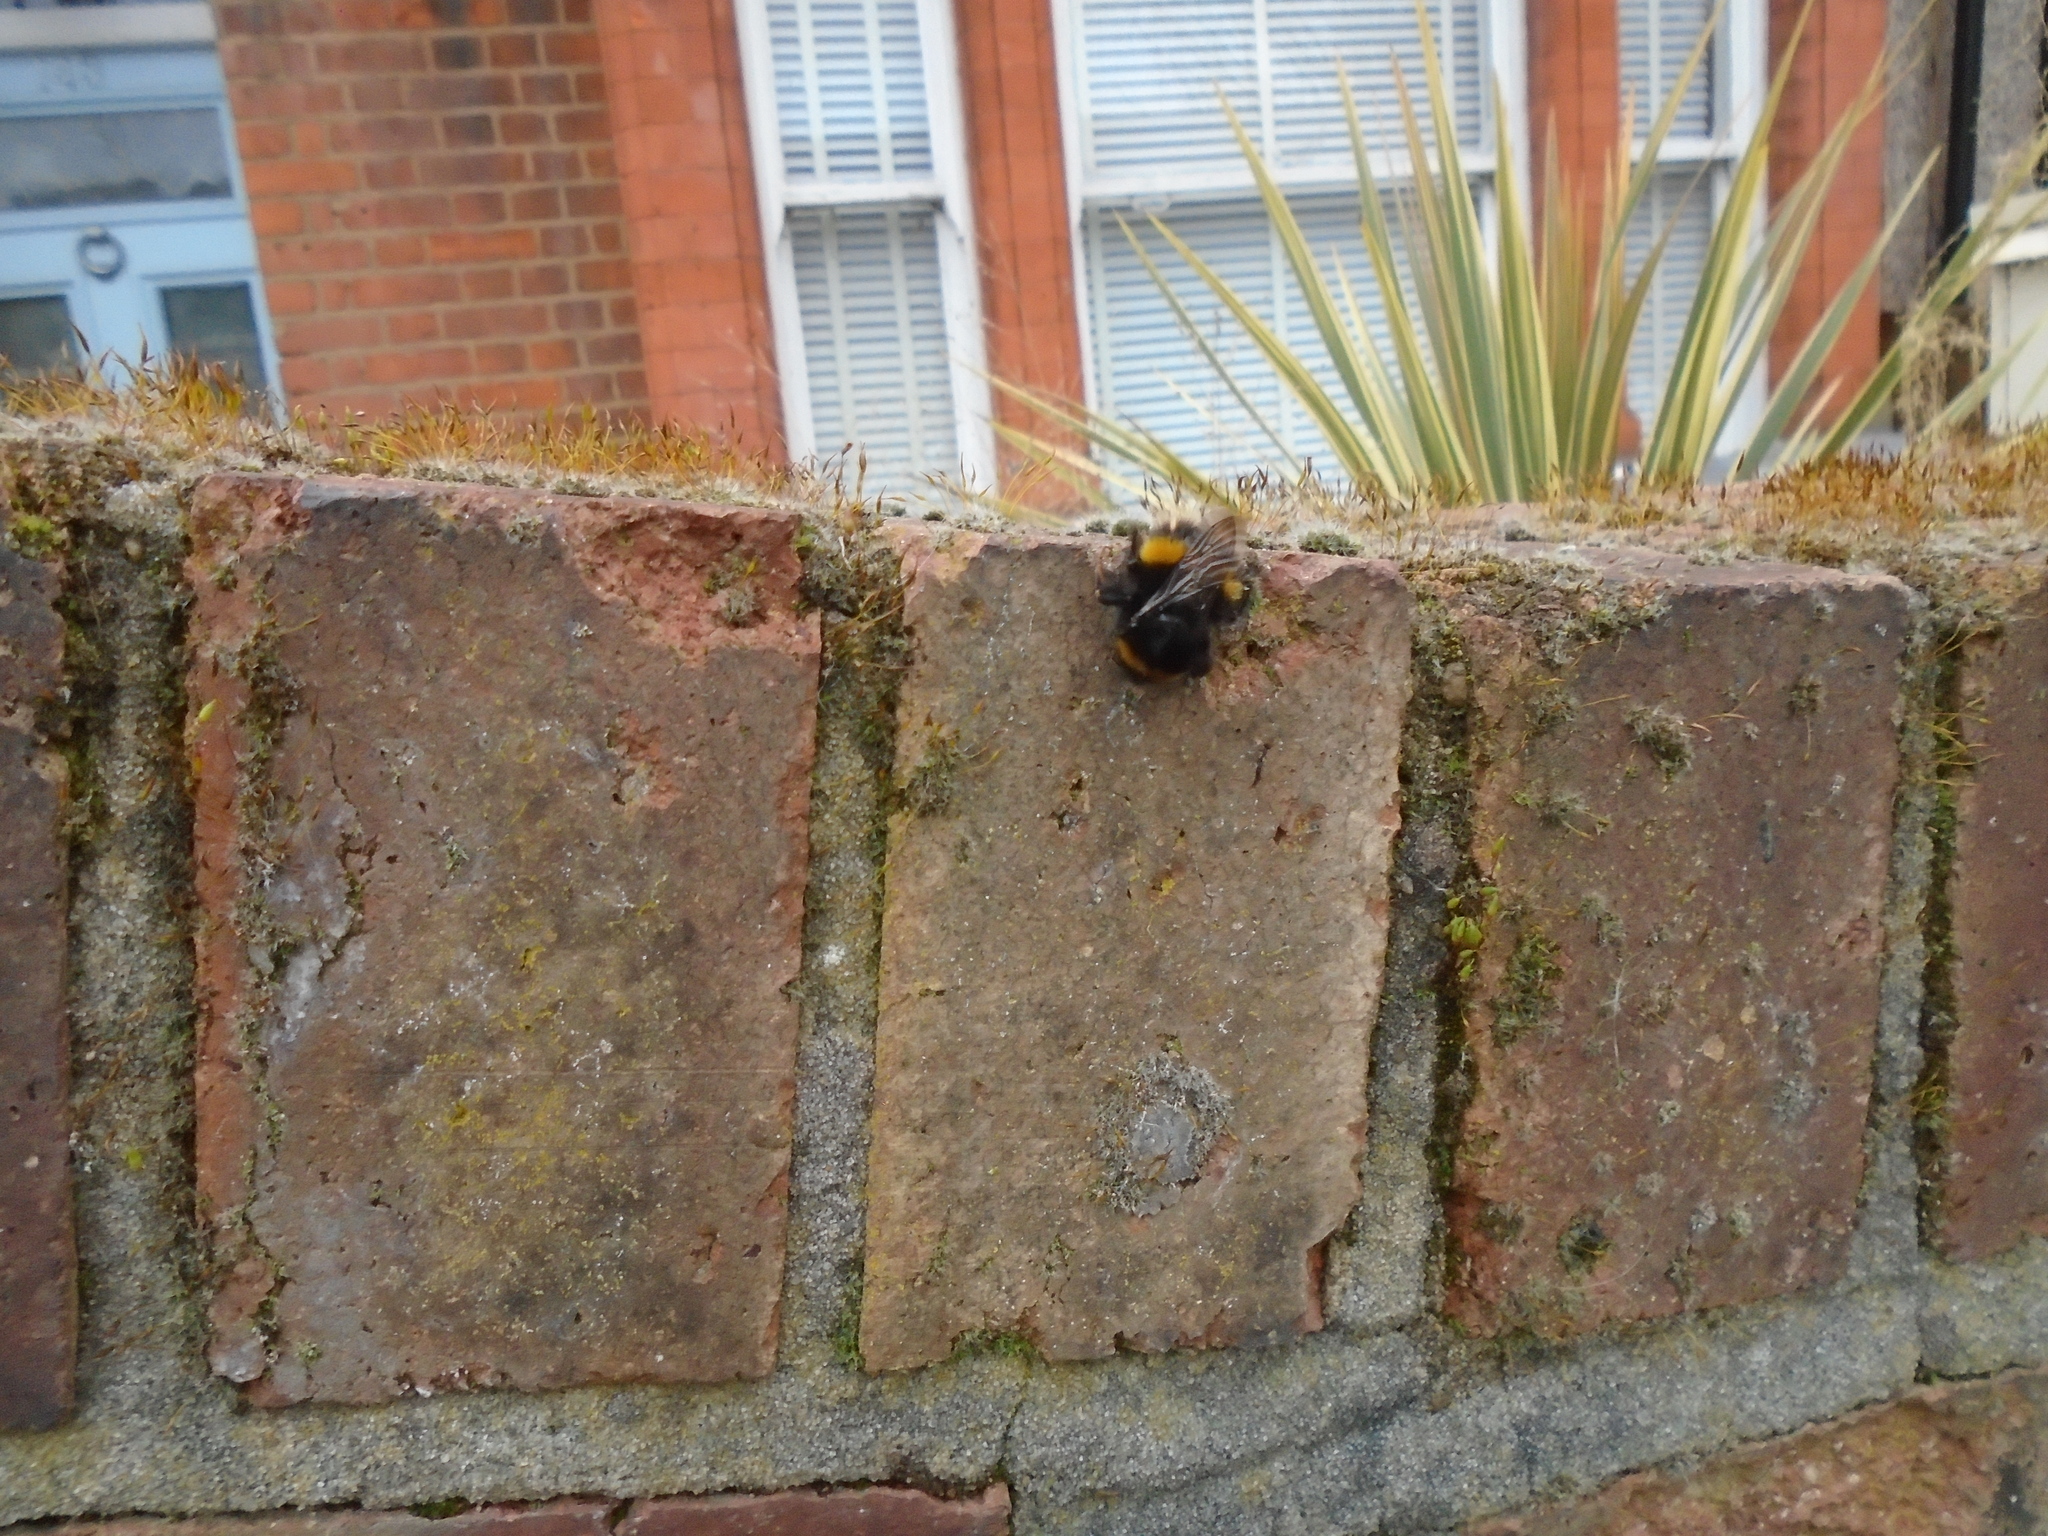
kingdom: Animalia
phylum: Arthropoda
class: Insecta
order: Hymenoptera
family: Apidae
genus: Bombus
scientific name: Bombus terrestris
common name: Buff-tailed bumblebee
